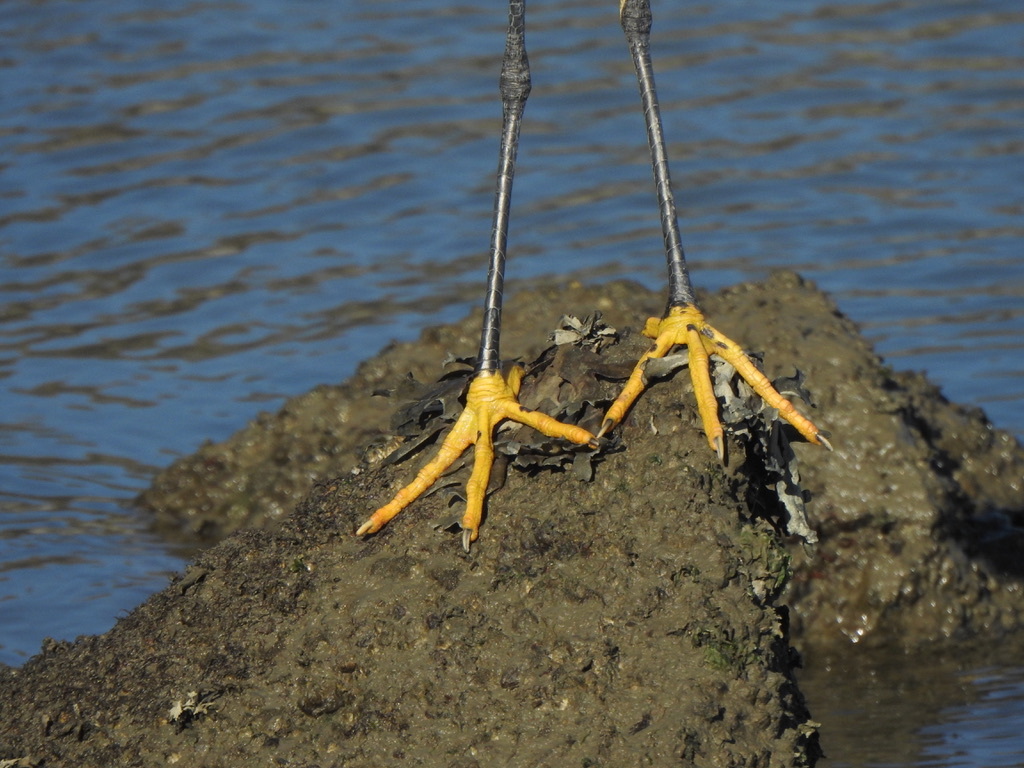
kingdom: Animalia
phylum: Chordata
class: Aves
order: Pelecaniformes
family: Ardeidae
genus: Egretta
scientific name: Egretta thula
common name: Snowy egret
